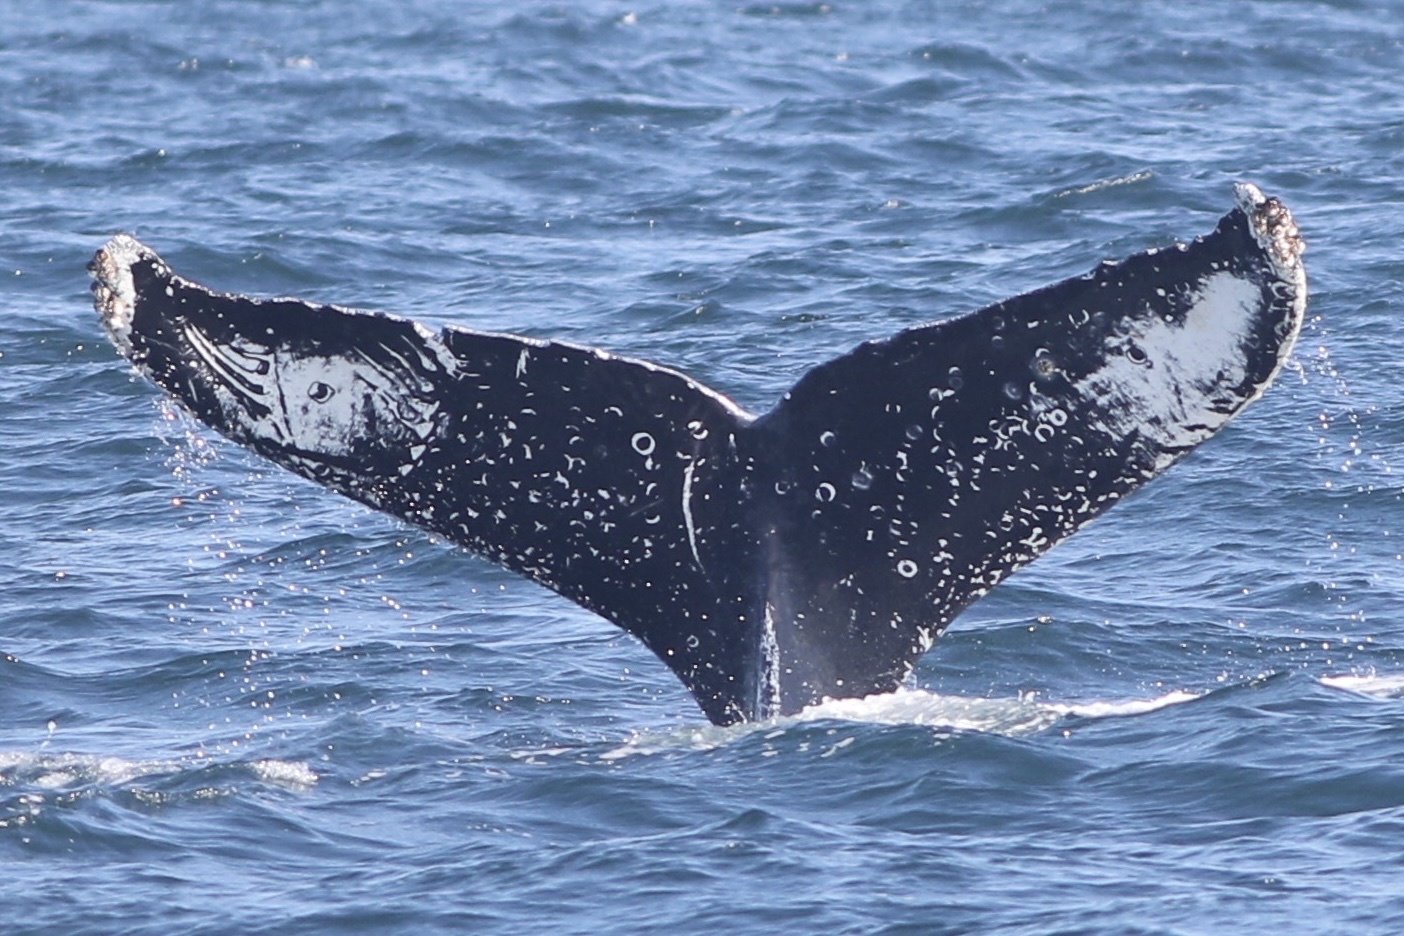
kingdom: Animalia
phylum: Chordata
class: Mammalia
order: Cetacea
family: Balaenopteridae
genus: Megaptera
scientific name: Megaptera novaeangliae
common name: Humpback whale
